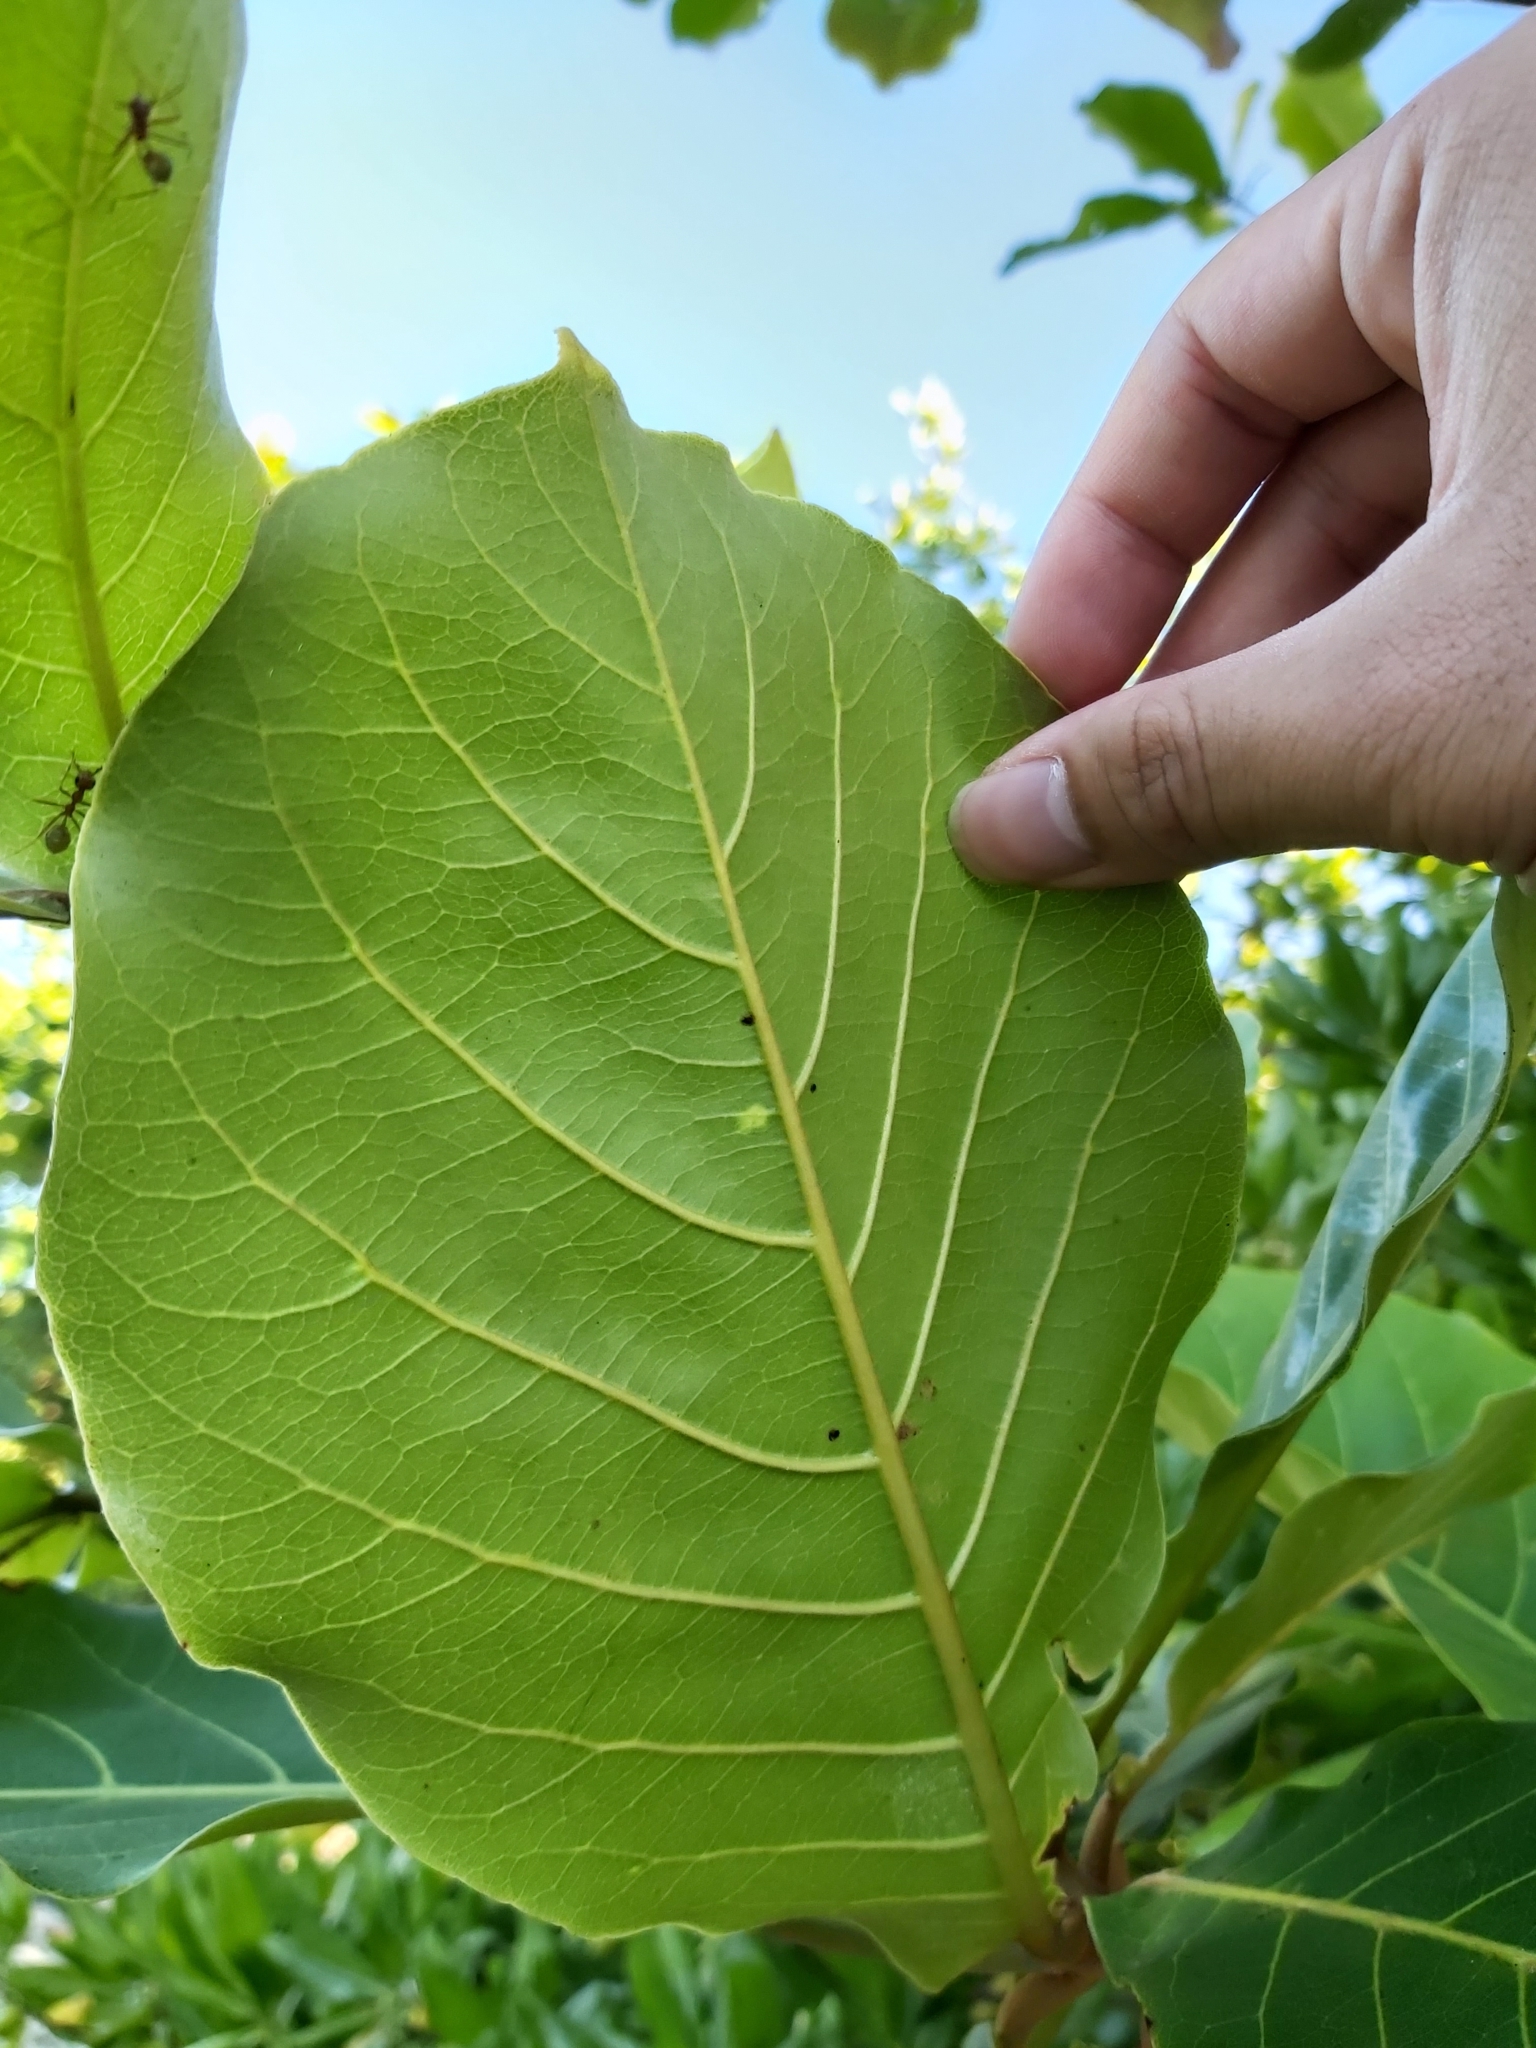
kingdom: Plantae
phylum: Tracheophyta
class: Magnoliopsida
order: Myrtales
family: Combretaceae
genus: Terminalia
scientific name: Terminalia catappa
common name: Tropical almond
